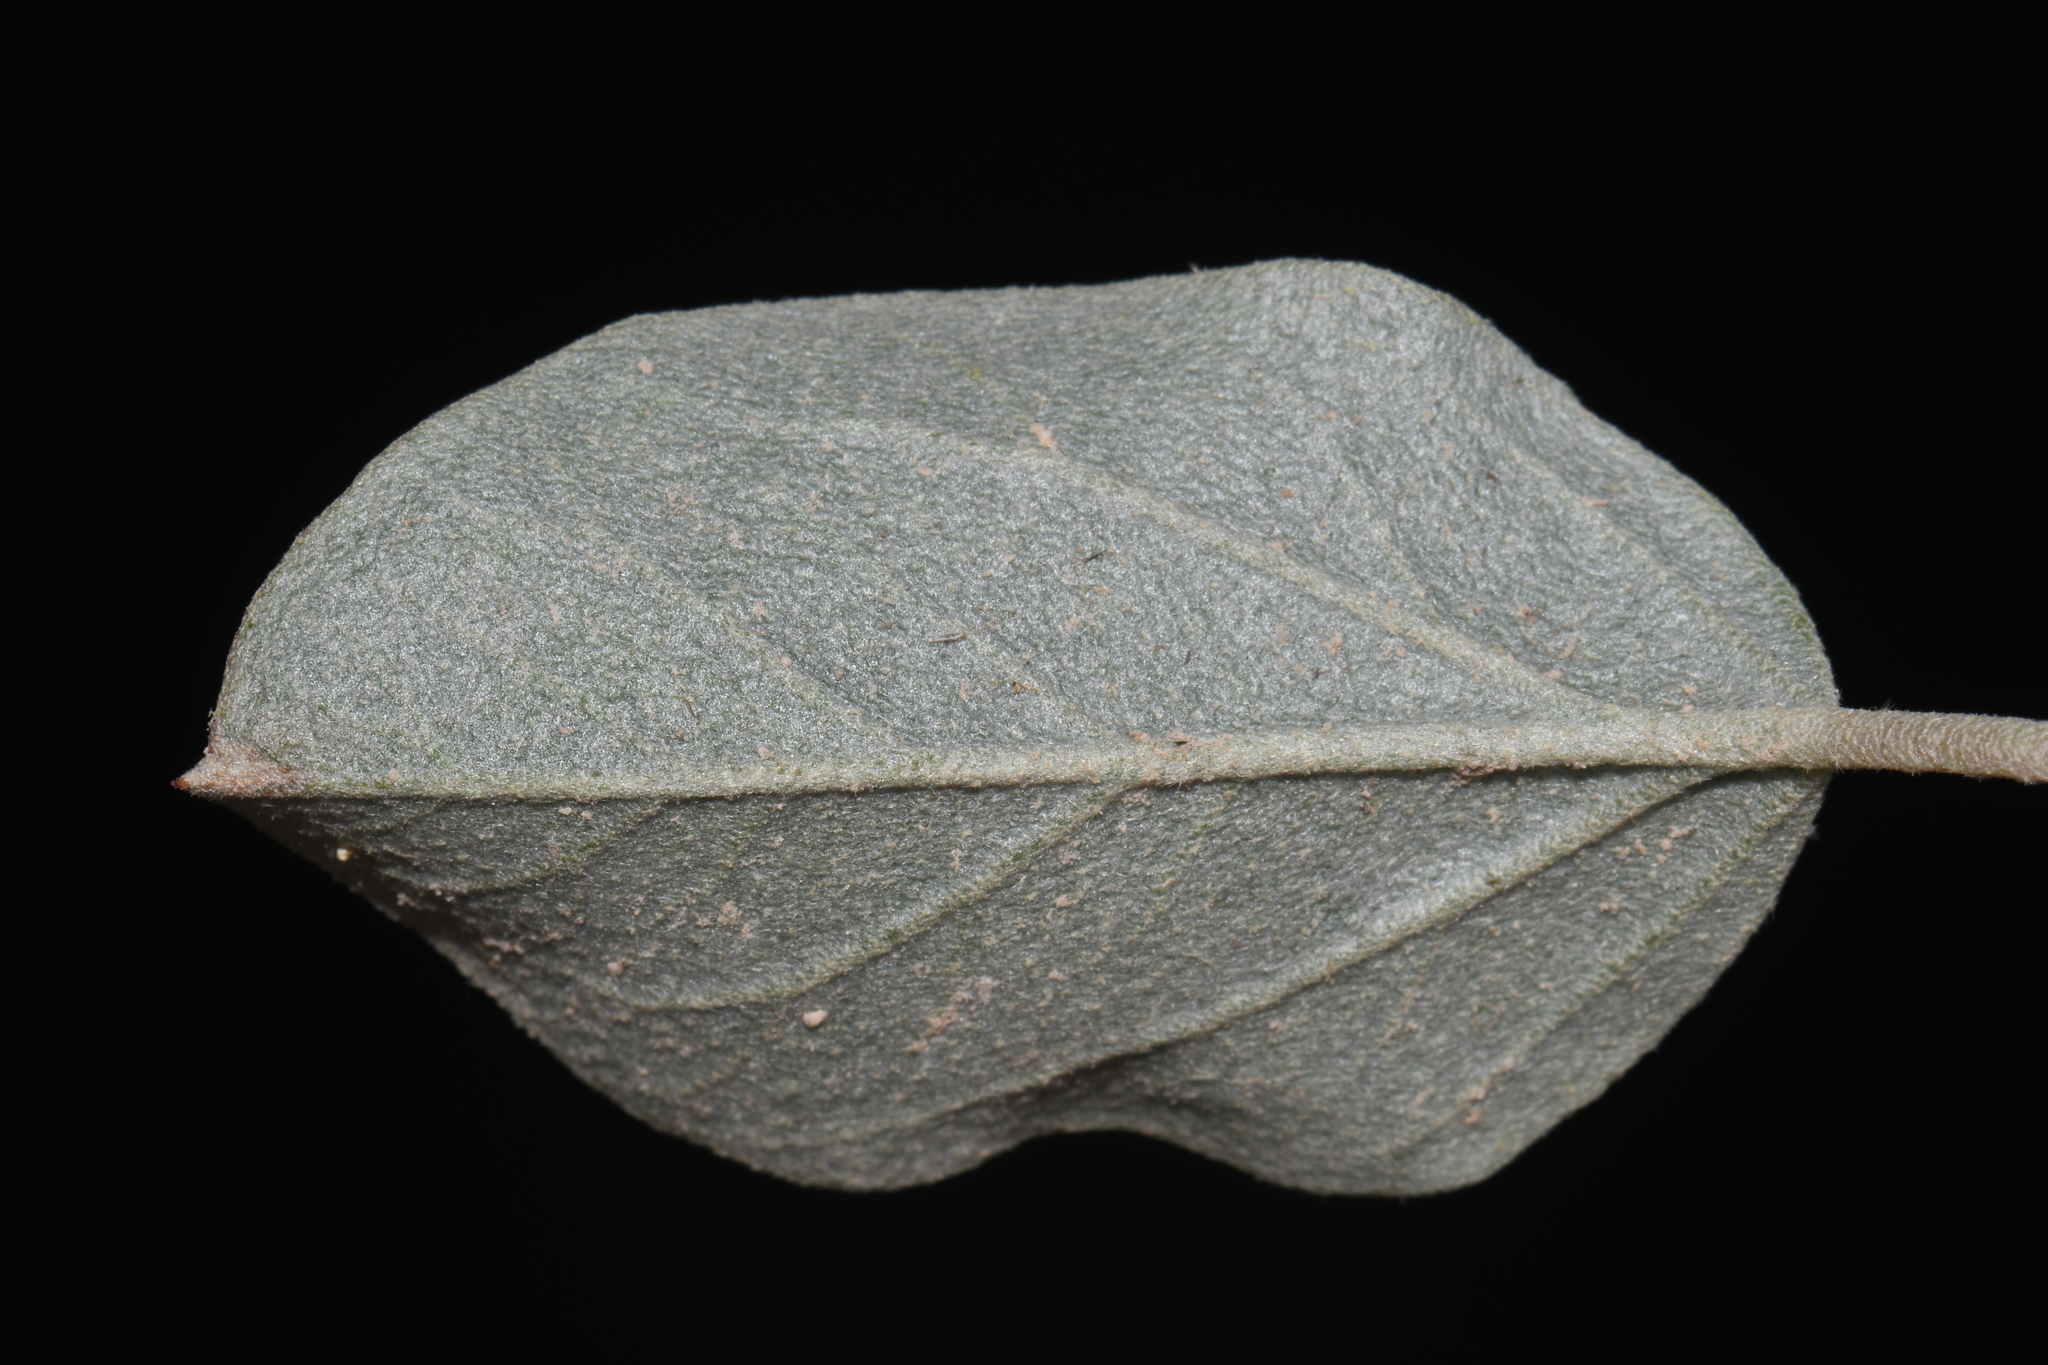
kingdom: Plantae
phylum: Tracheophyta
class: Magnoliopsida
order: Malpighiales
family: Euphorbiaceae
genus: Croton
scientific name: Croton pottsii
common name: Leatherweed
